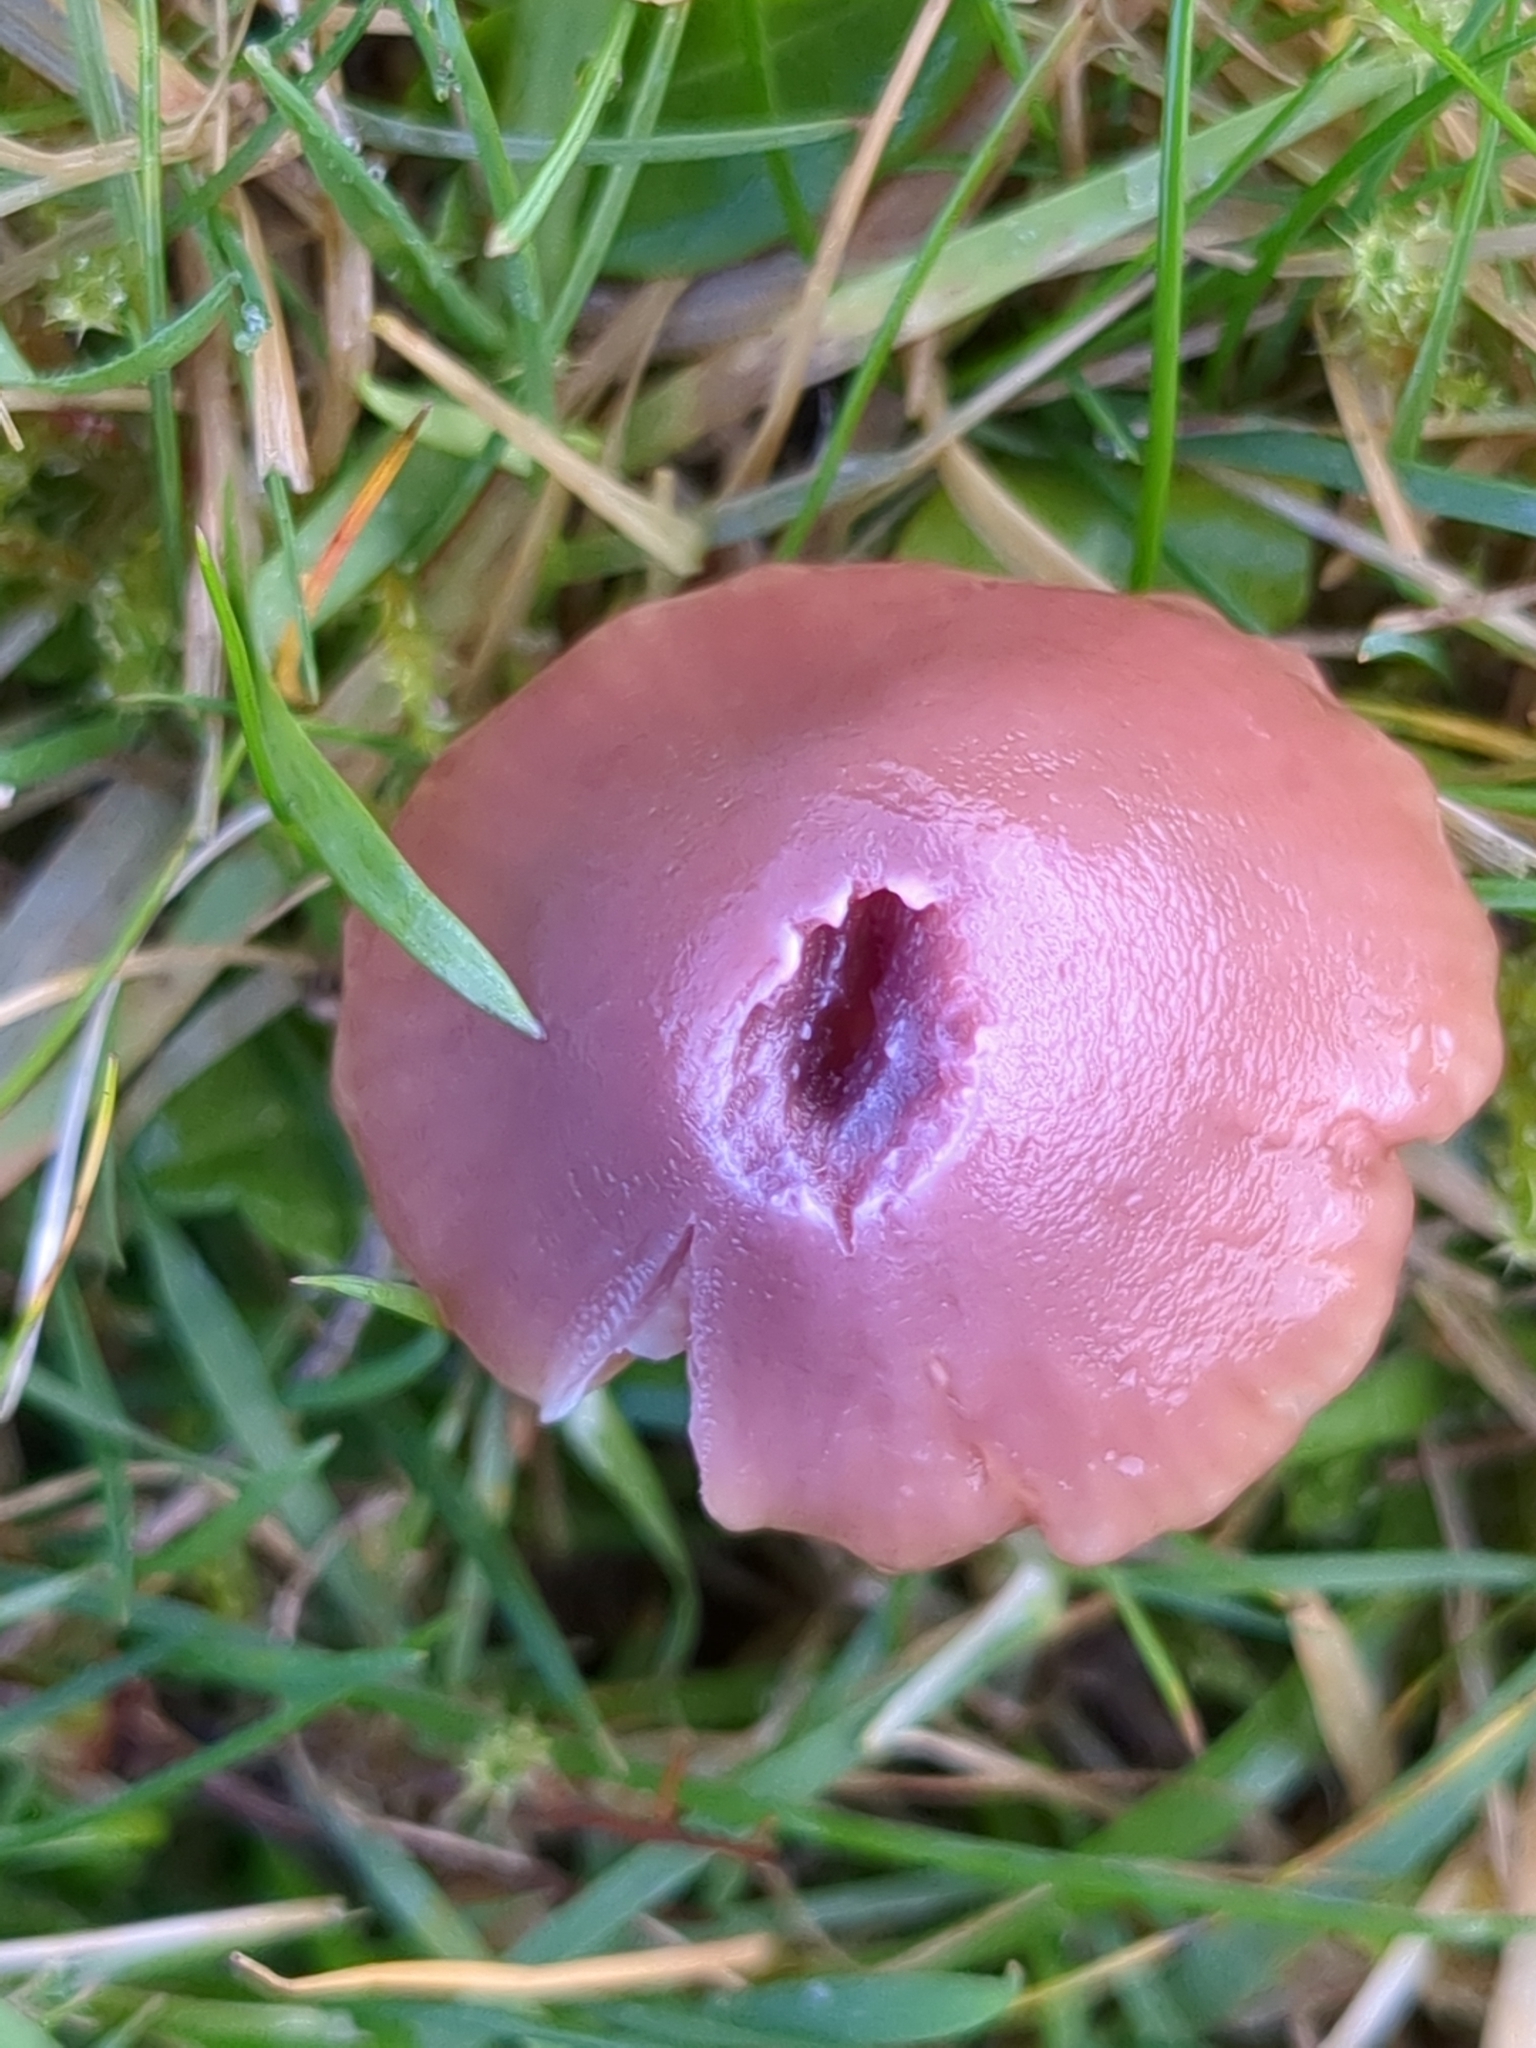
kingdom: Fungi
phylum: Basidiomycota
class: Agaricomycetes
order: Agaricales
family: Hygrophoraceae
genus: Gliophorus
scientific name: Gliophorus reginae
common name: Jubilee waxcap
